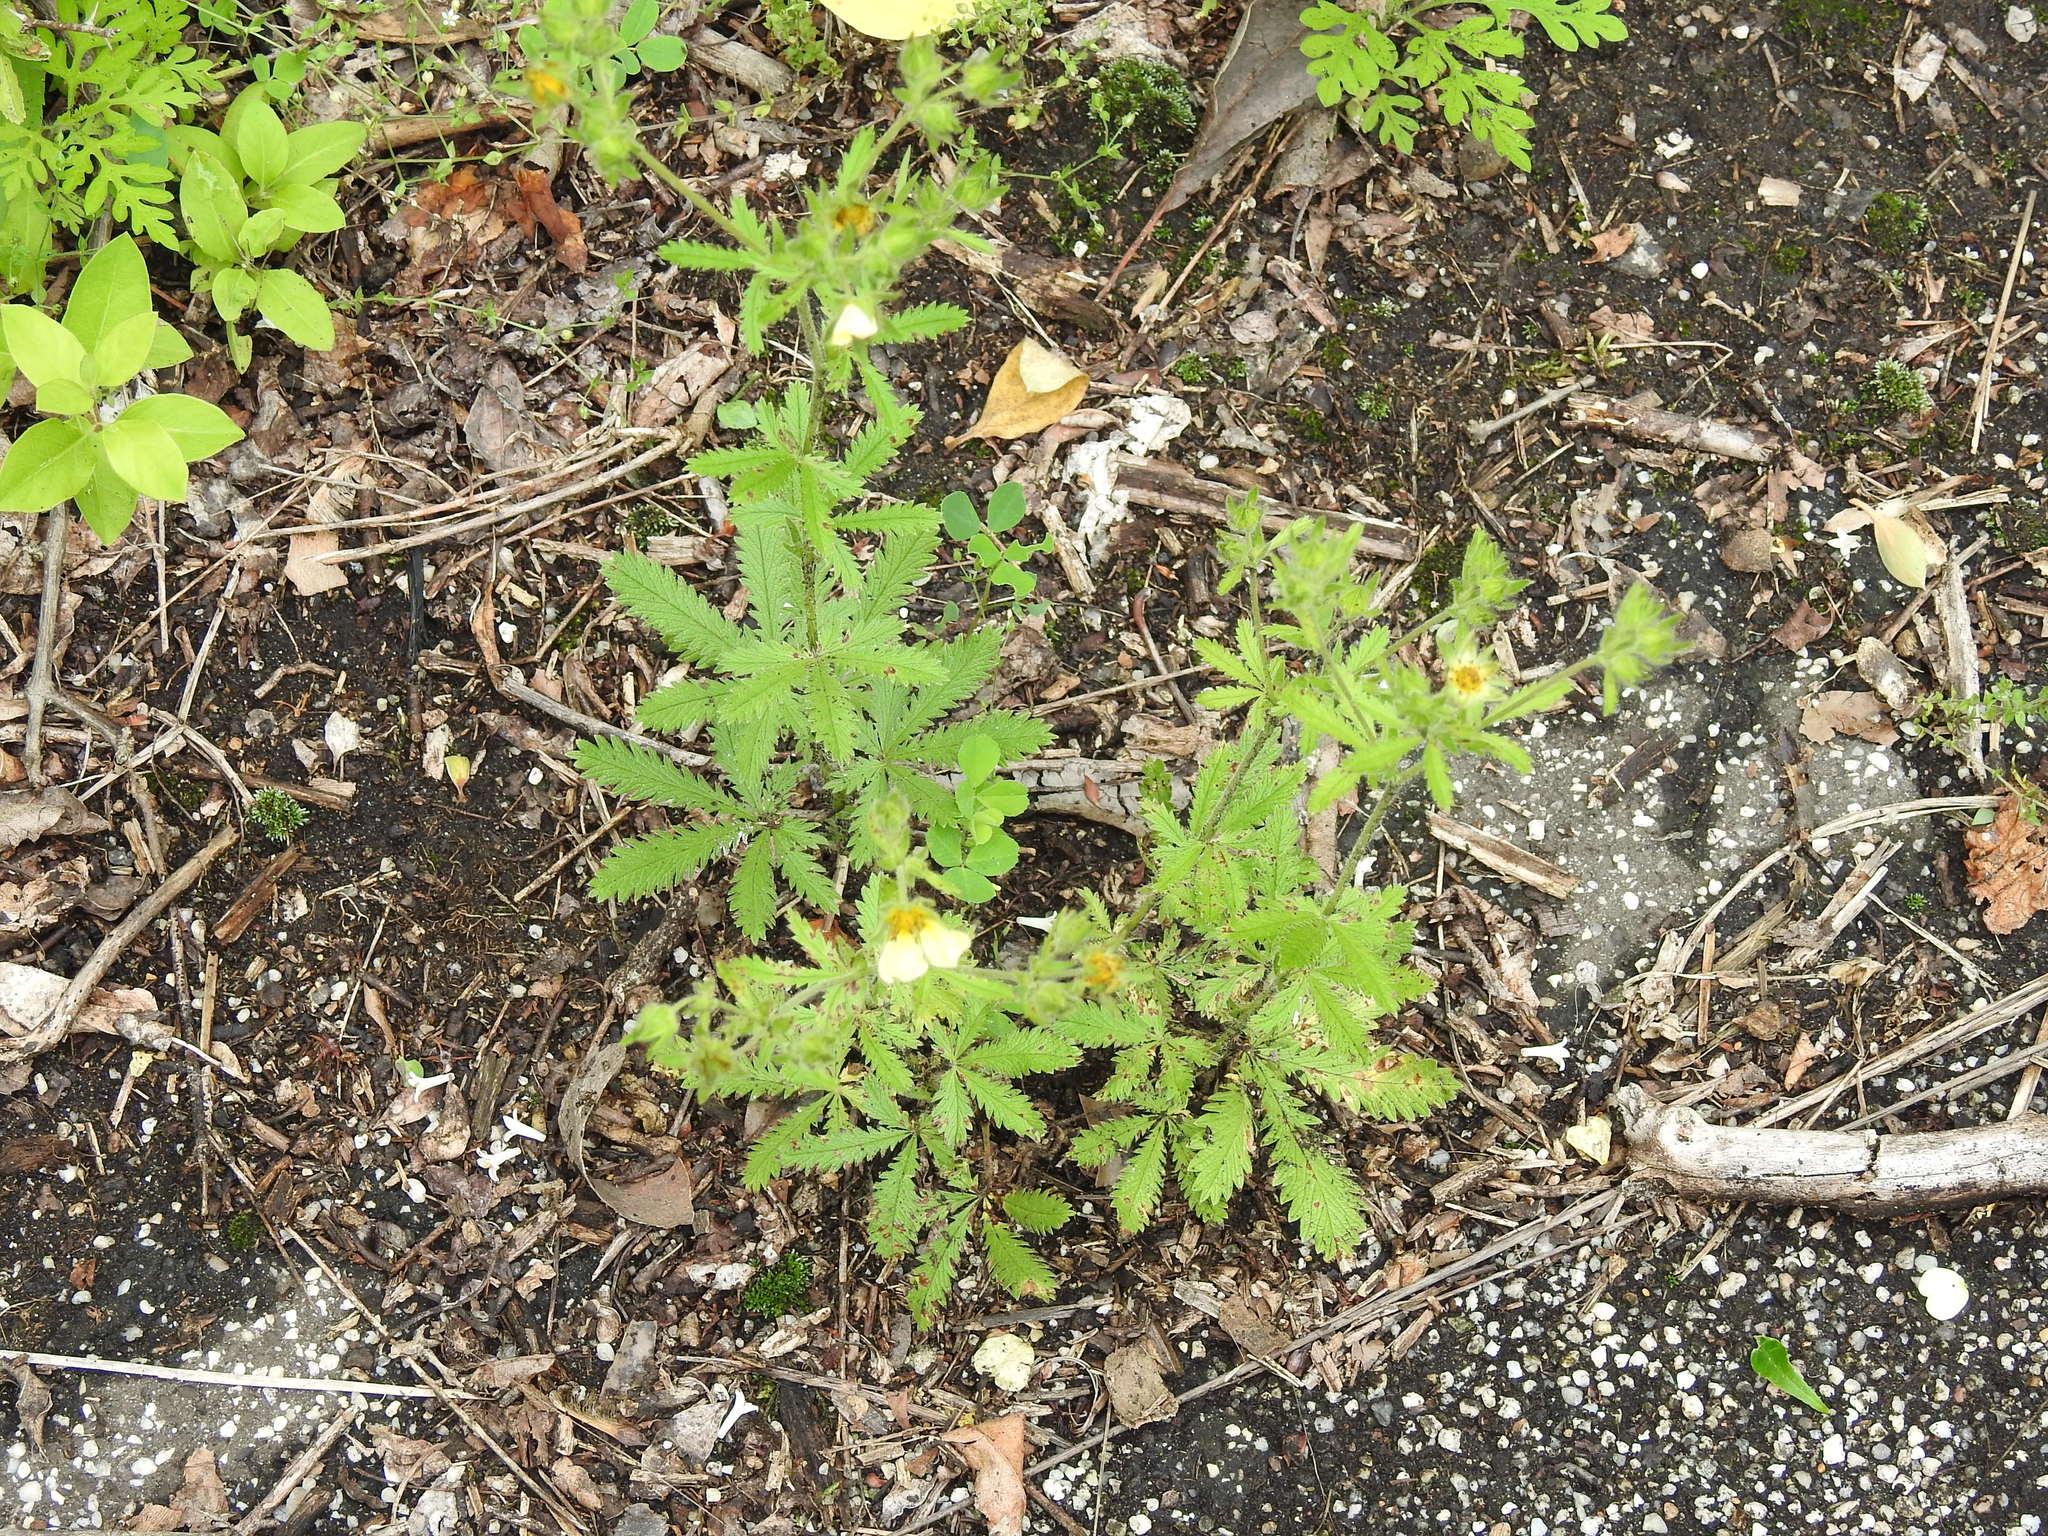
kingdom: Plantae
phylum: Tracheophyta
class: Magnoliopsida
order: Rosales
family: Rosaceae
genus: Potentilla
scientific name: Potentilla recta
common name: Sulphur cinquefoil
